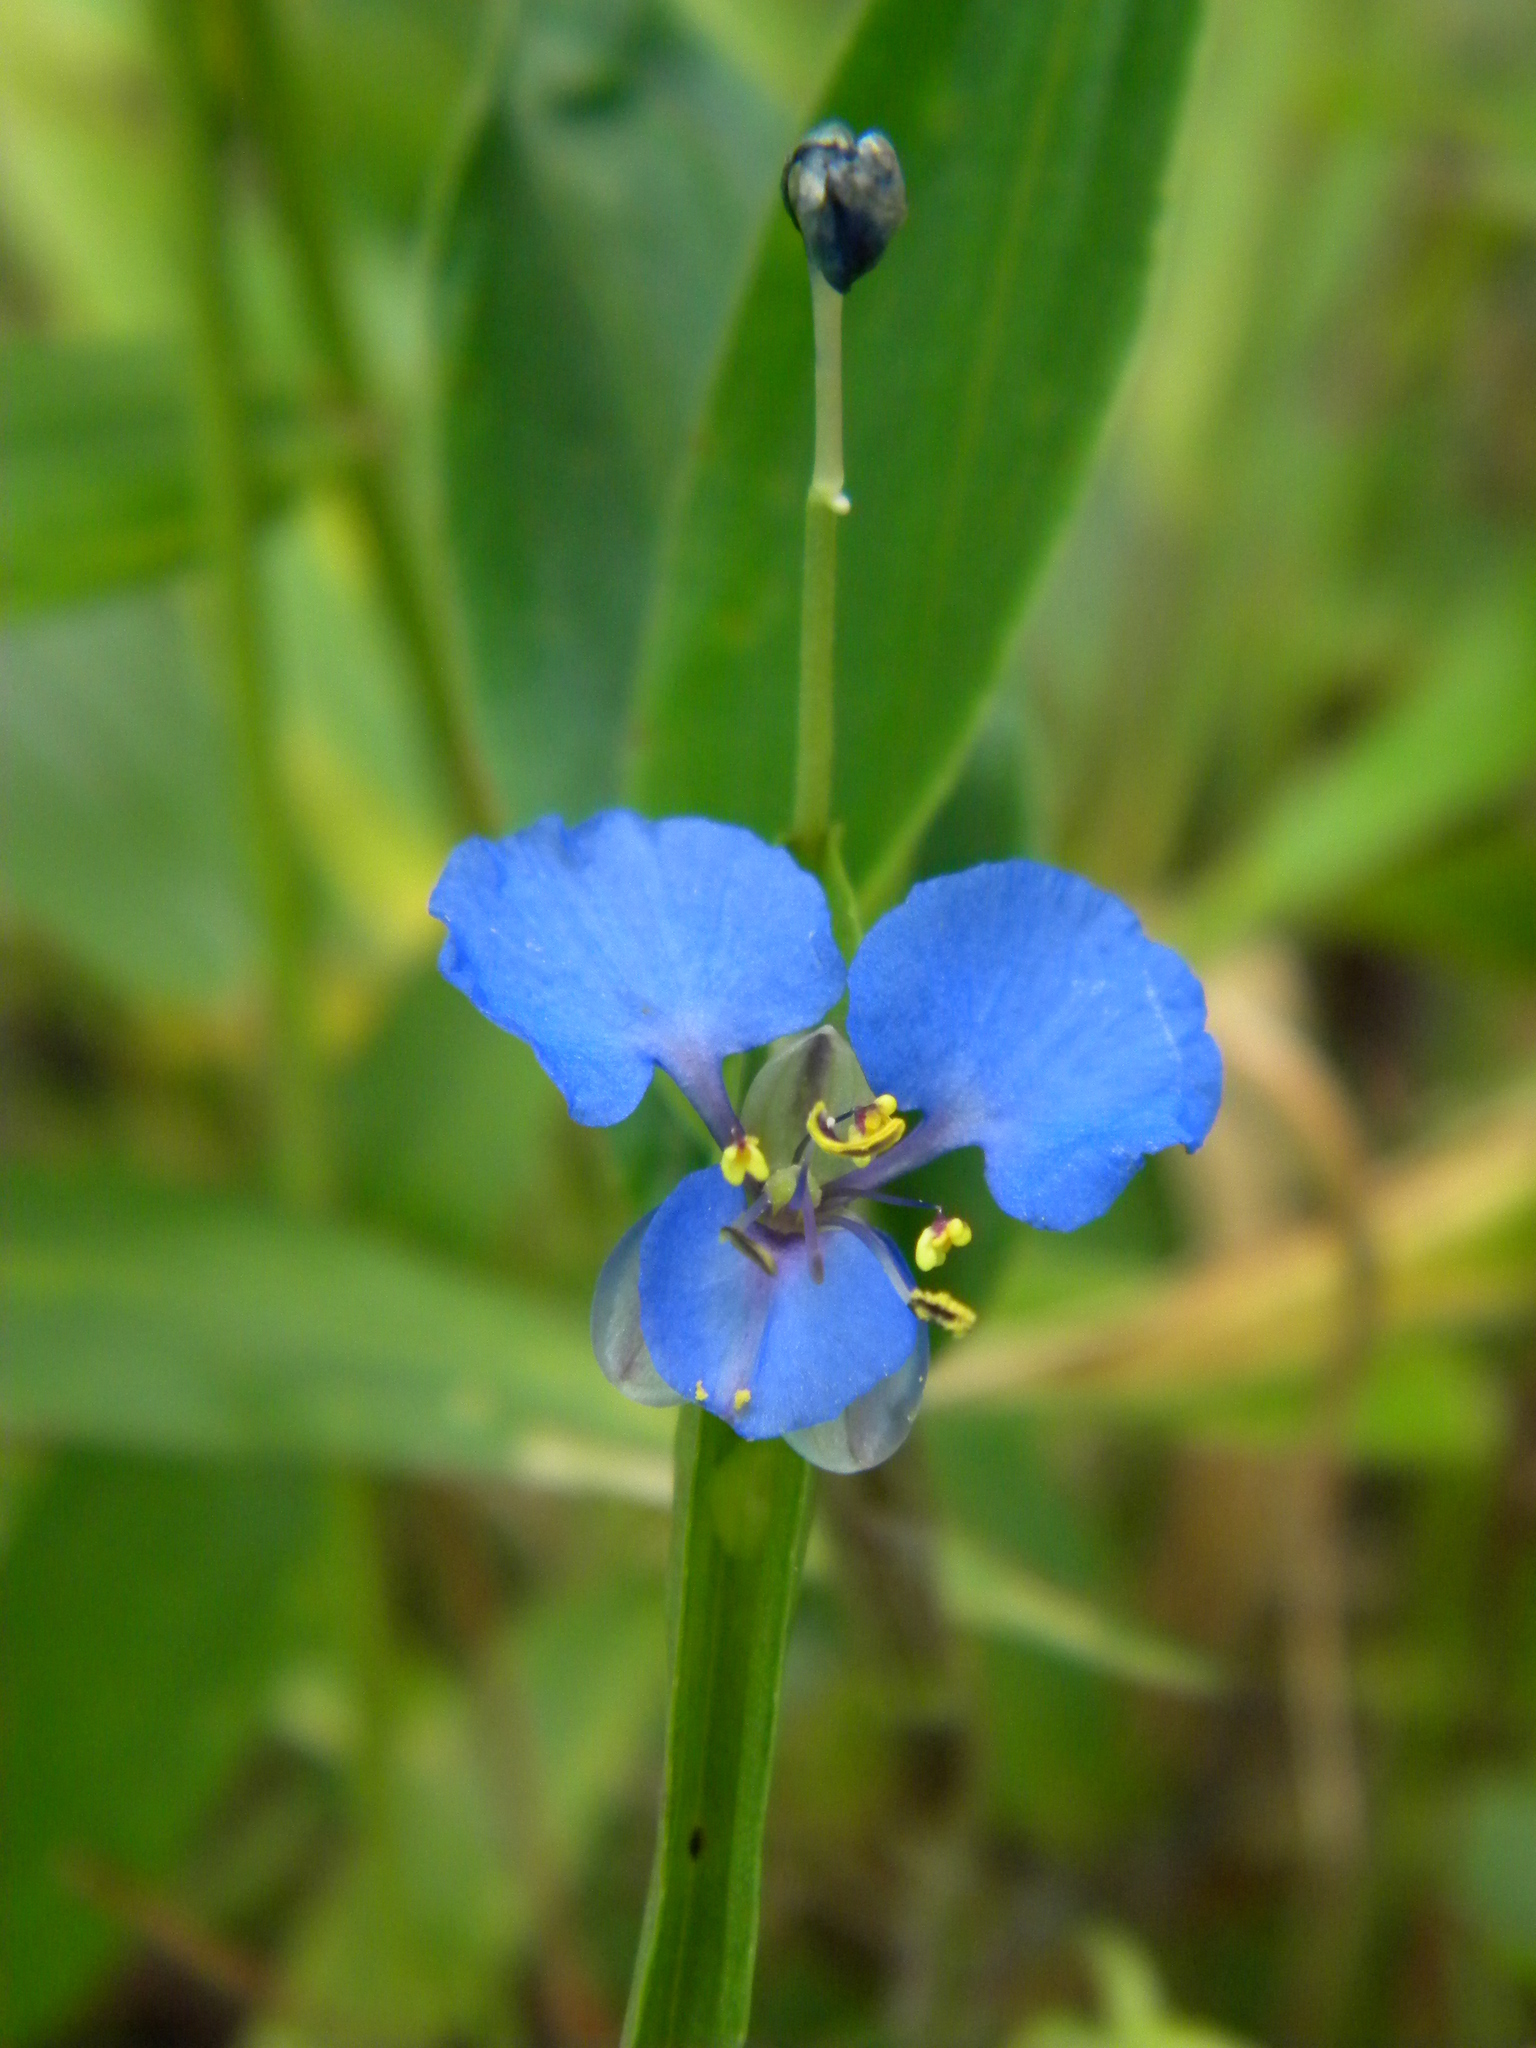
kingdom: Plantae
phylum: Tracheophyta
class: Liliopsida
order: Commelinales
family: Commelinaceae
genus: Commelina
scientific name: Commelina diffusa
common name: Climbing dayflower
